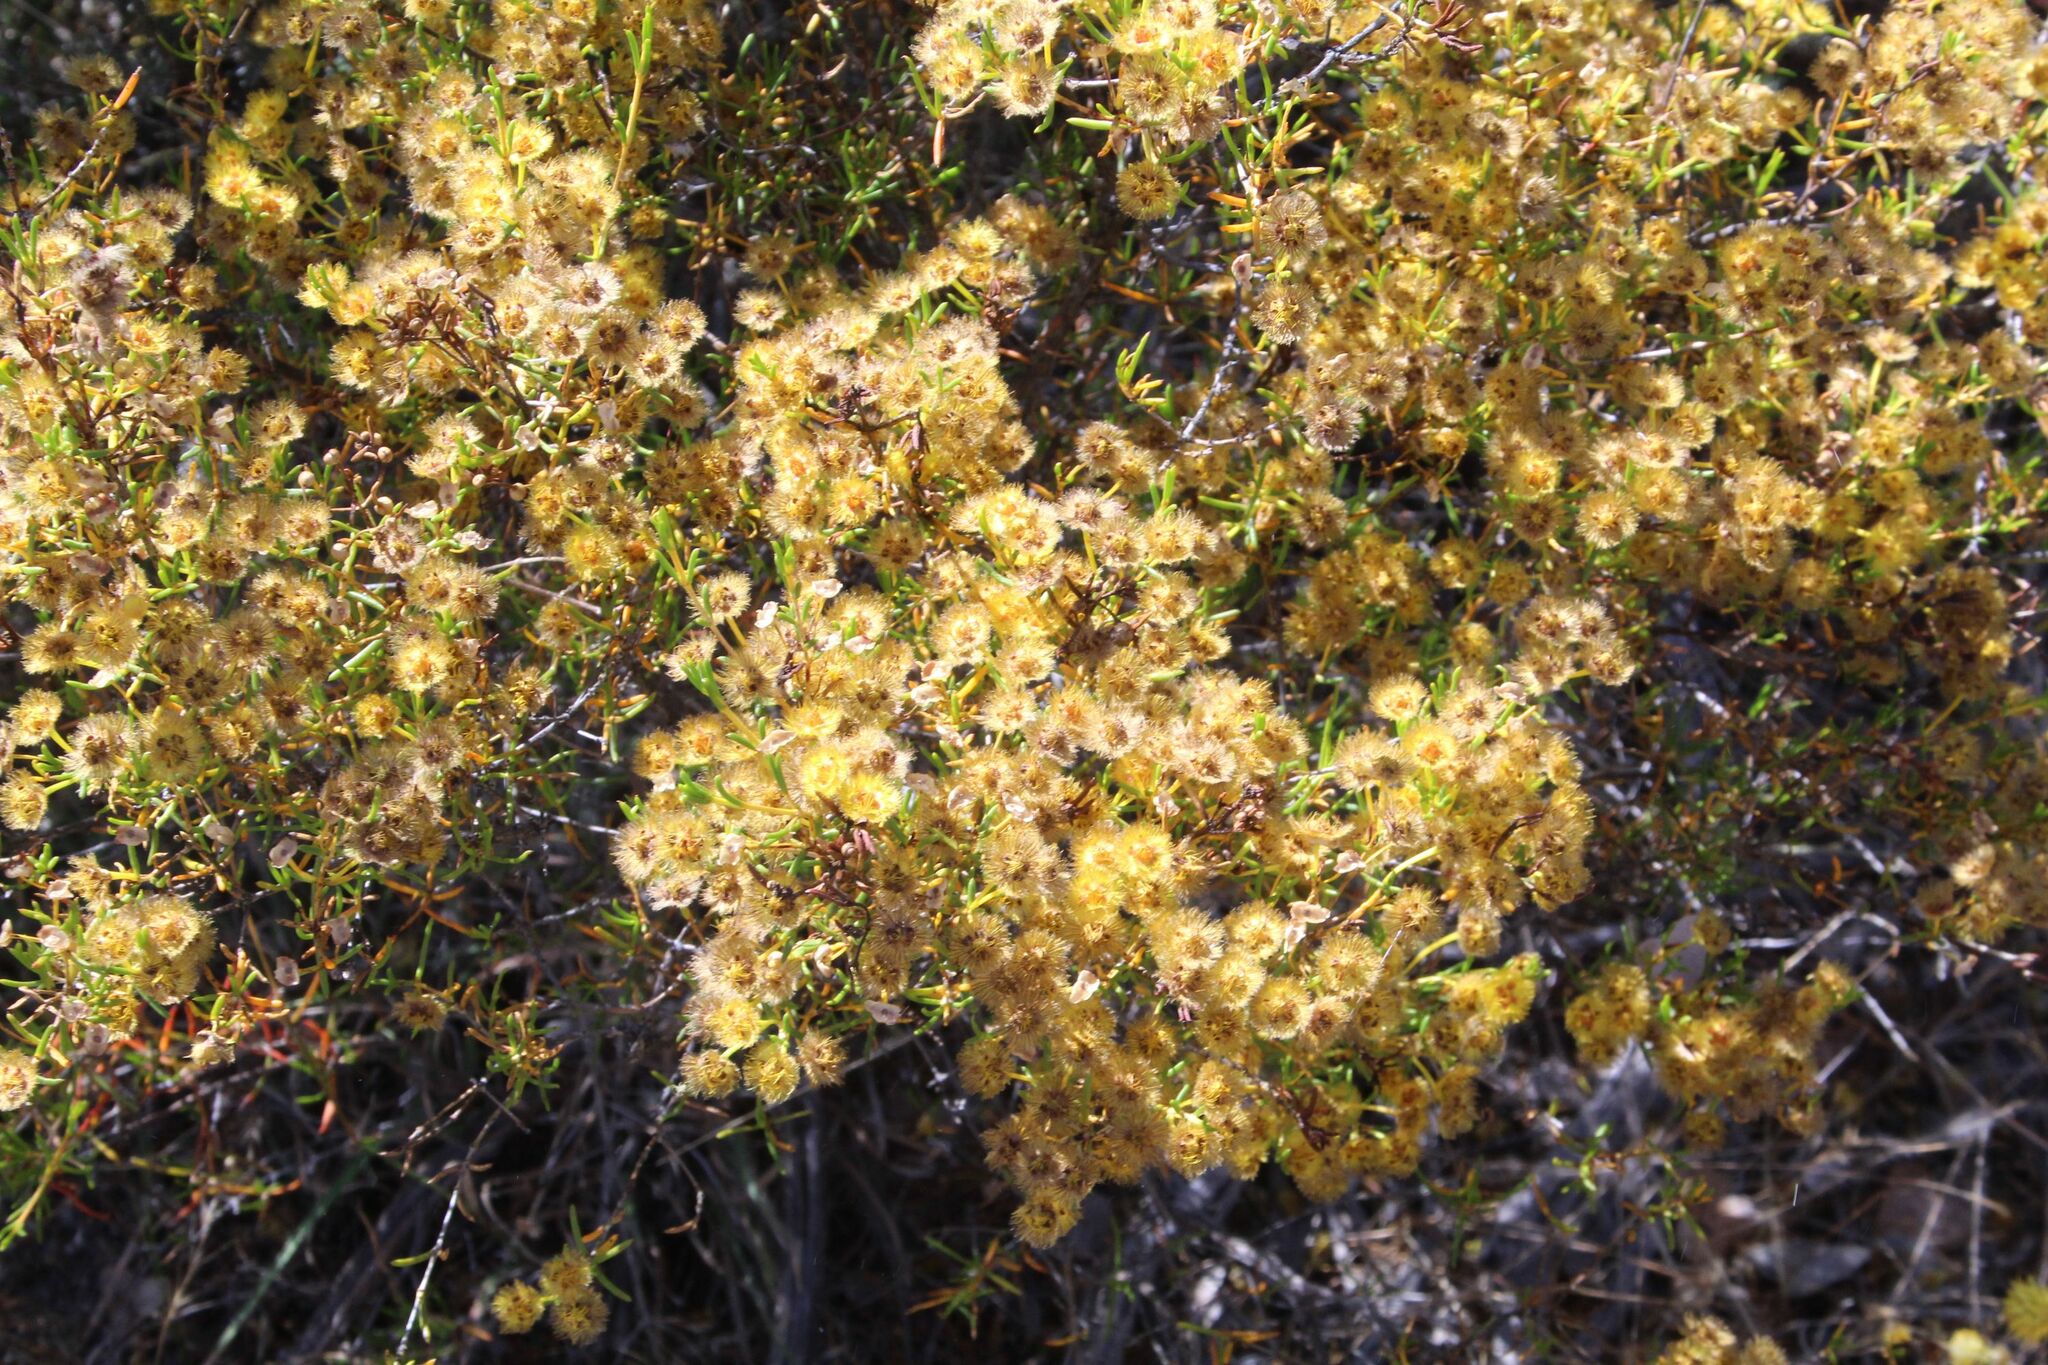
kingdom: Plantae
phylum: Tracheophyta
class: Magnoliopsida
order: Myrtales
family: Myrtaceae
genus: Verticordia
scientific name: Verticordia chrysanthella
